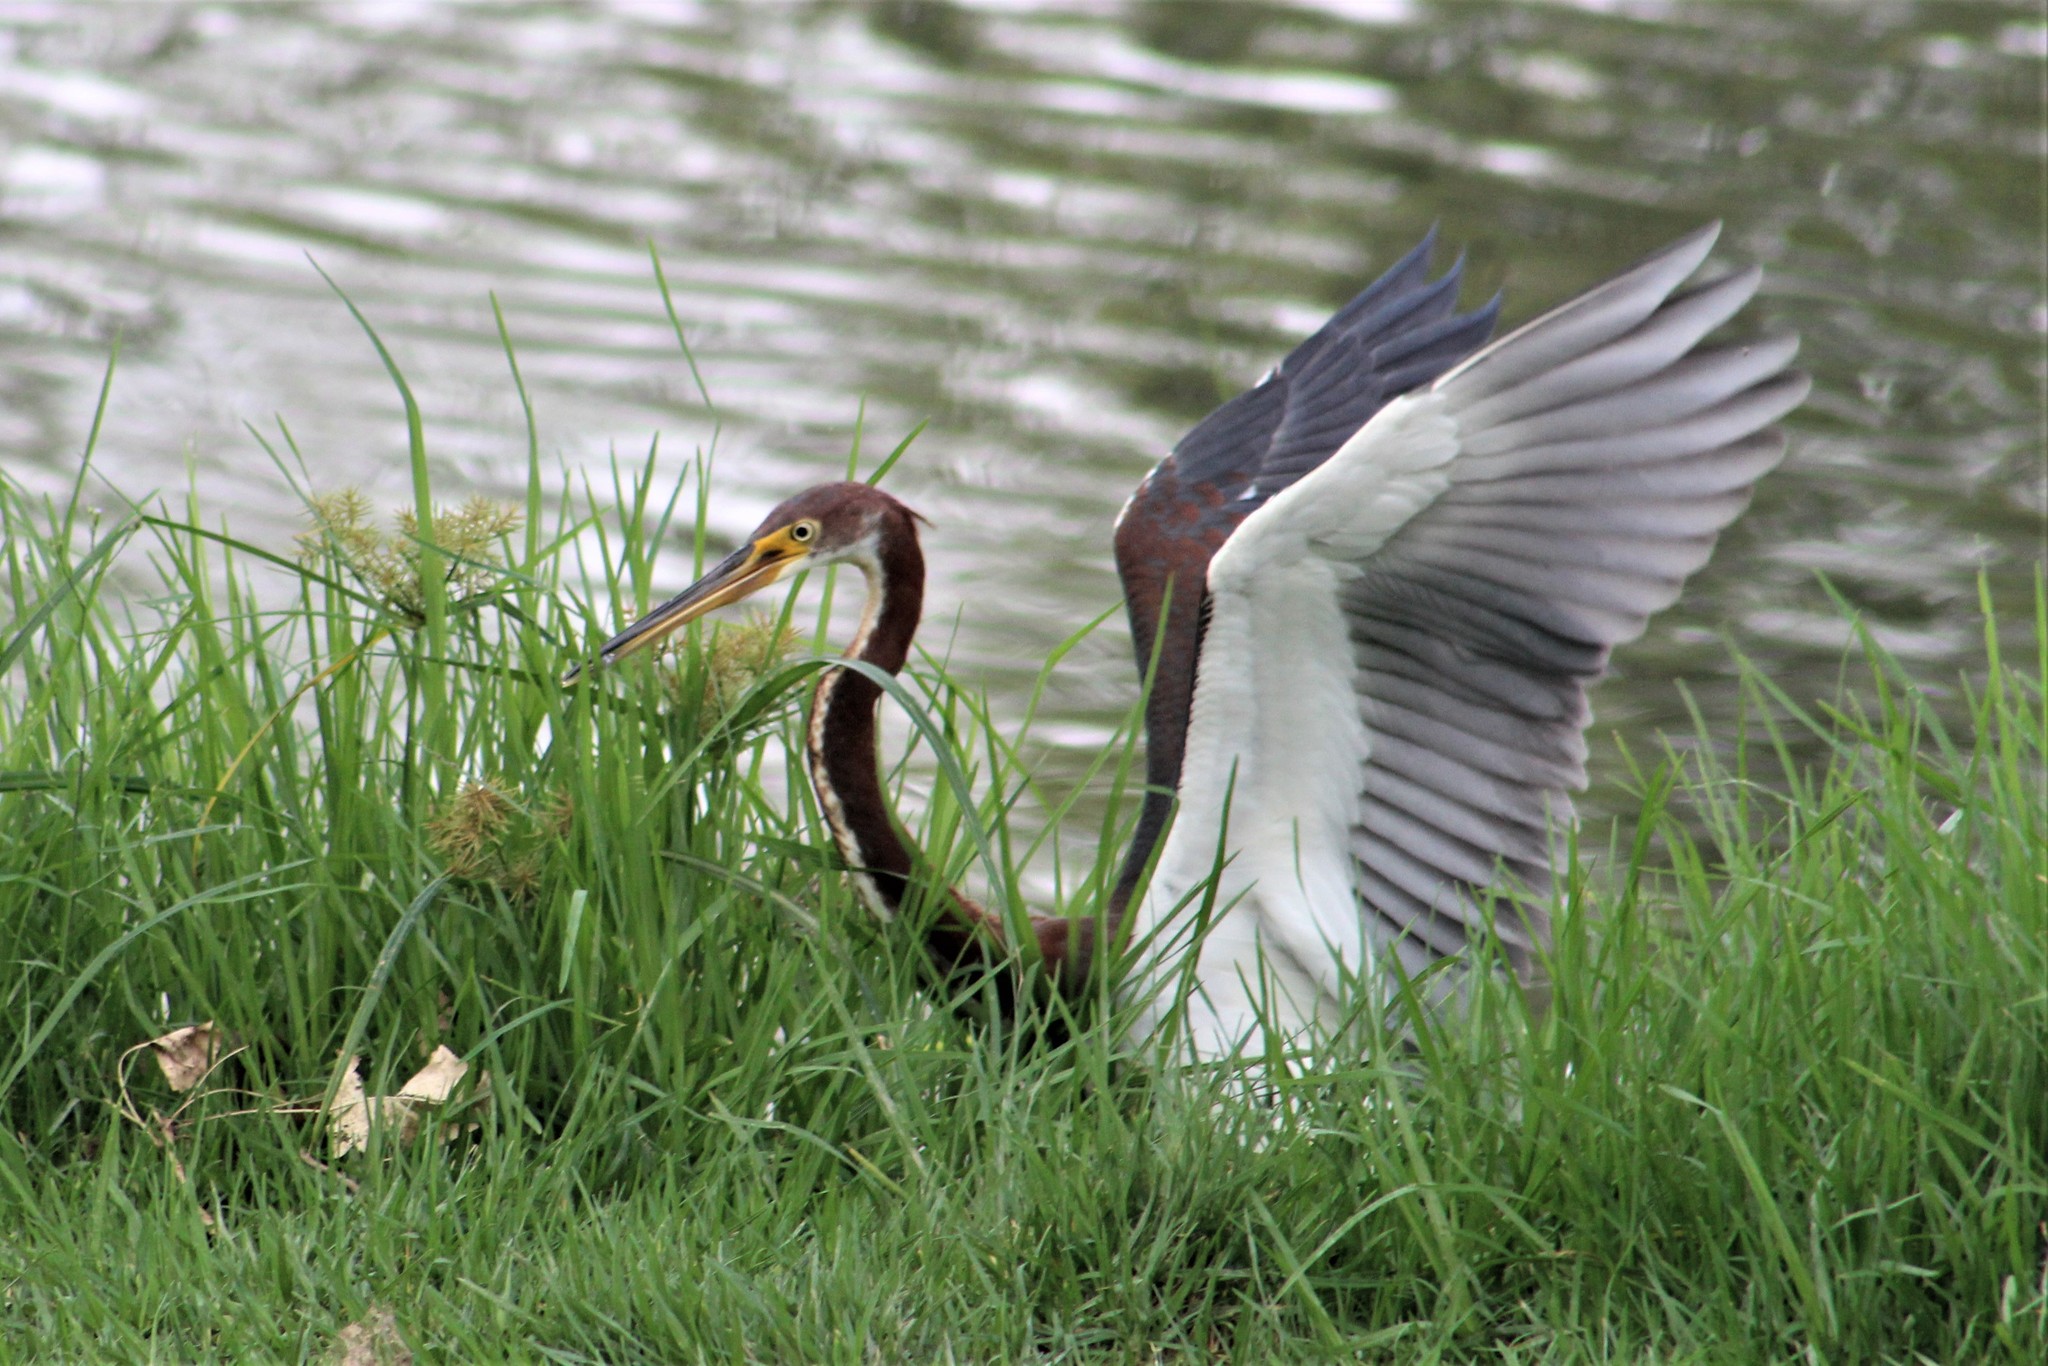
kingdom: Animalia
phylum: Chordata
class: Aves
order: Pelecaniformes
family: Ardeidae
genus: Egretta
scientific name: Egretta tricolor
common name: Tricolored heron
